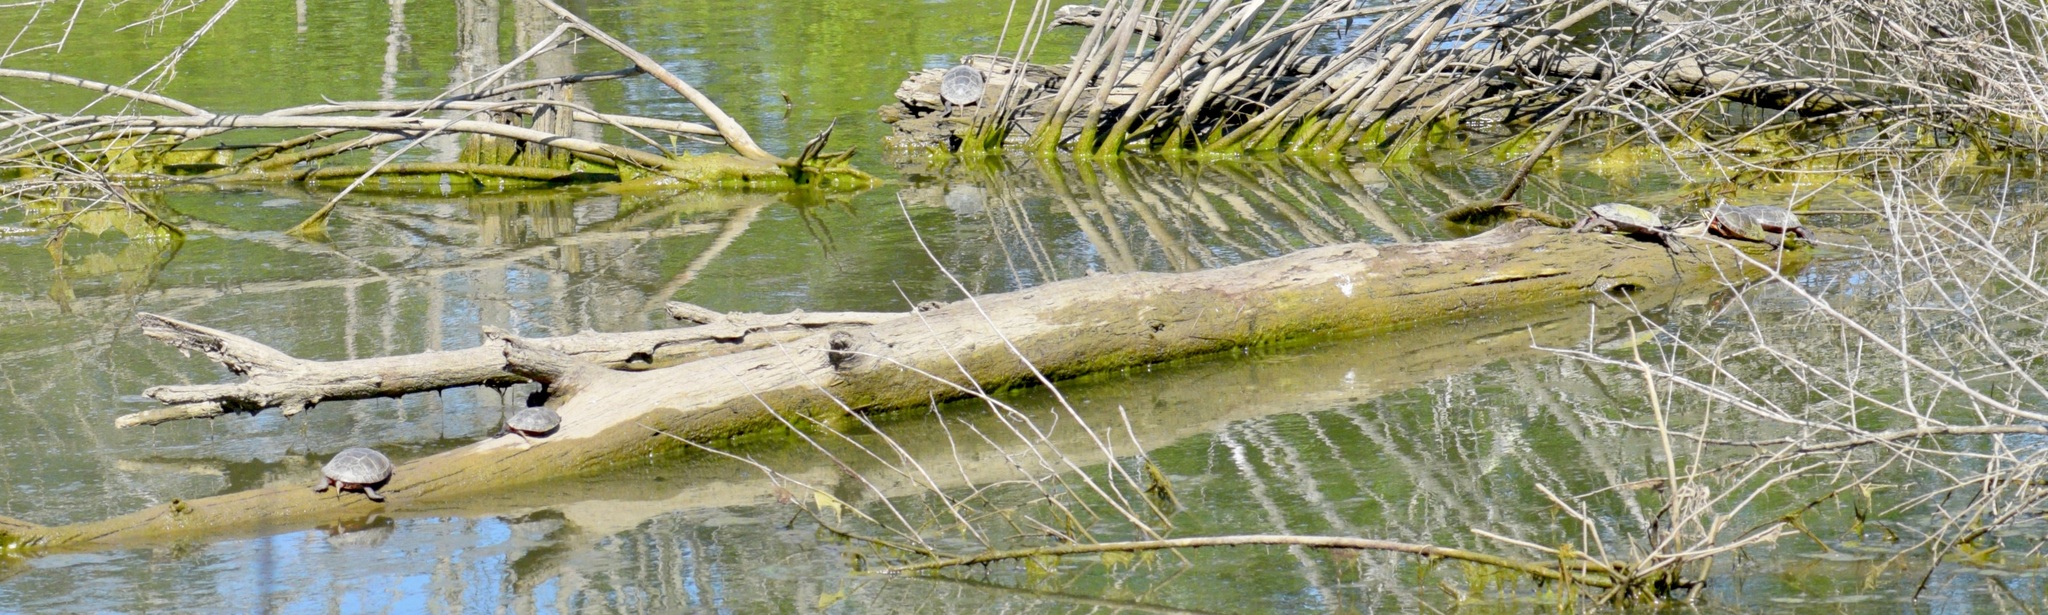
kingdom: Animalia
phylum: Chordata
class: Testudines
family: Emydidae
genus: Chrysemys
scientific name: Chrysemys picta
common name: Painted turtle
